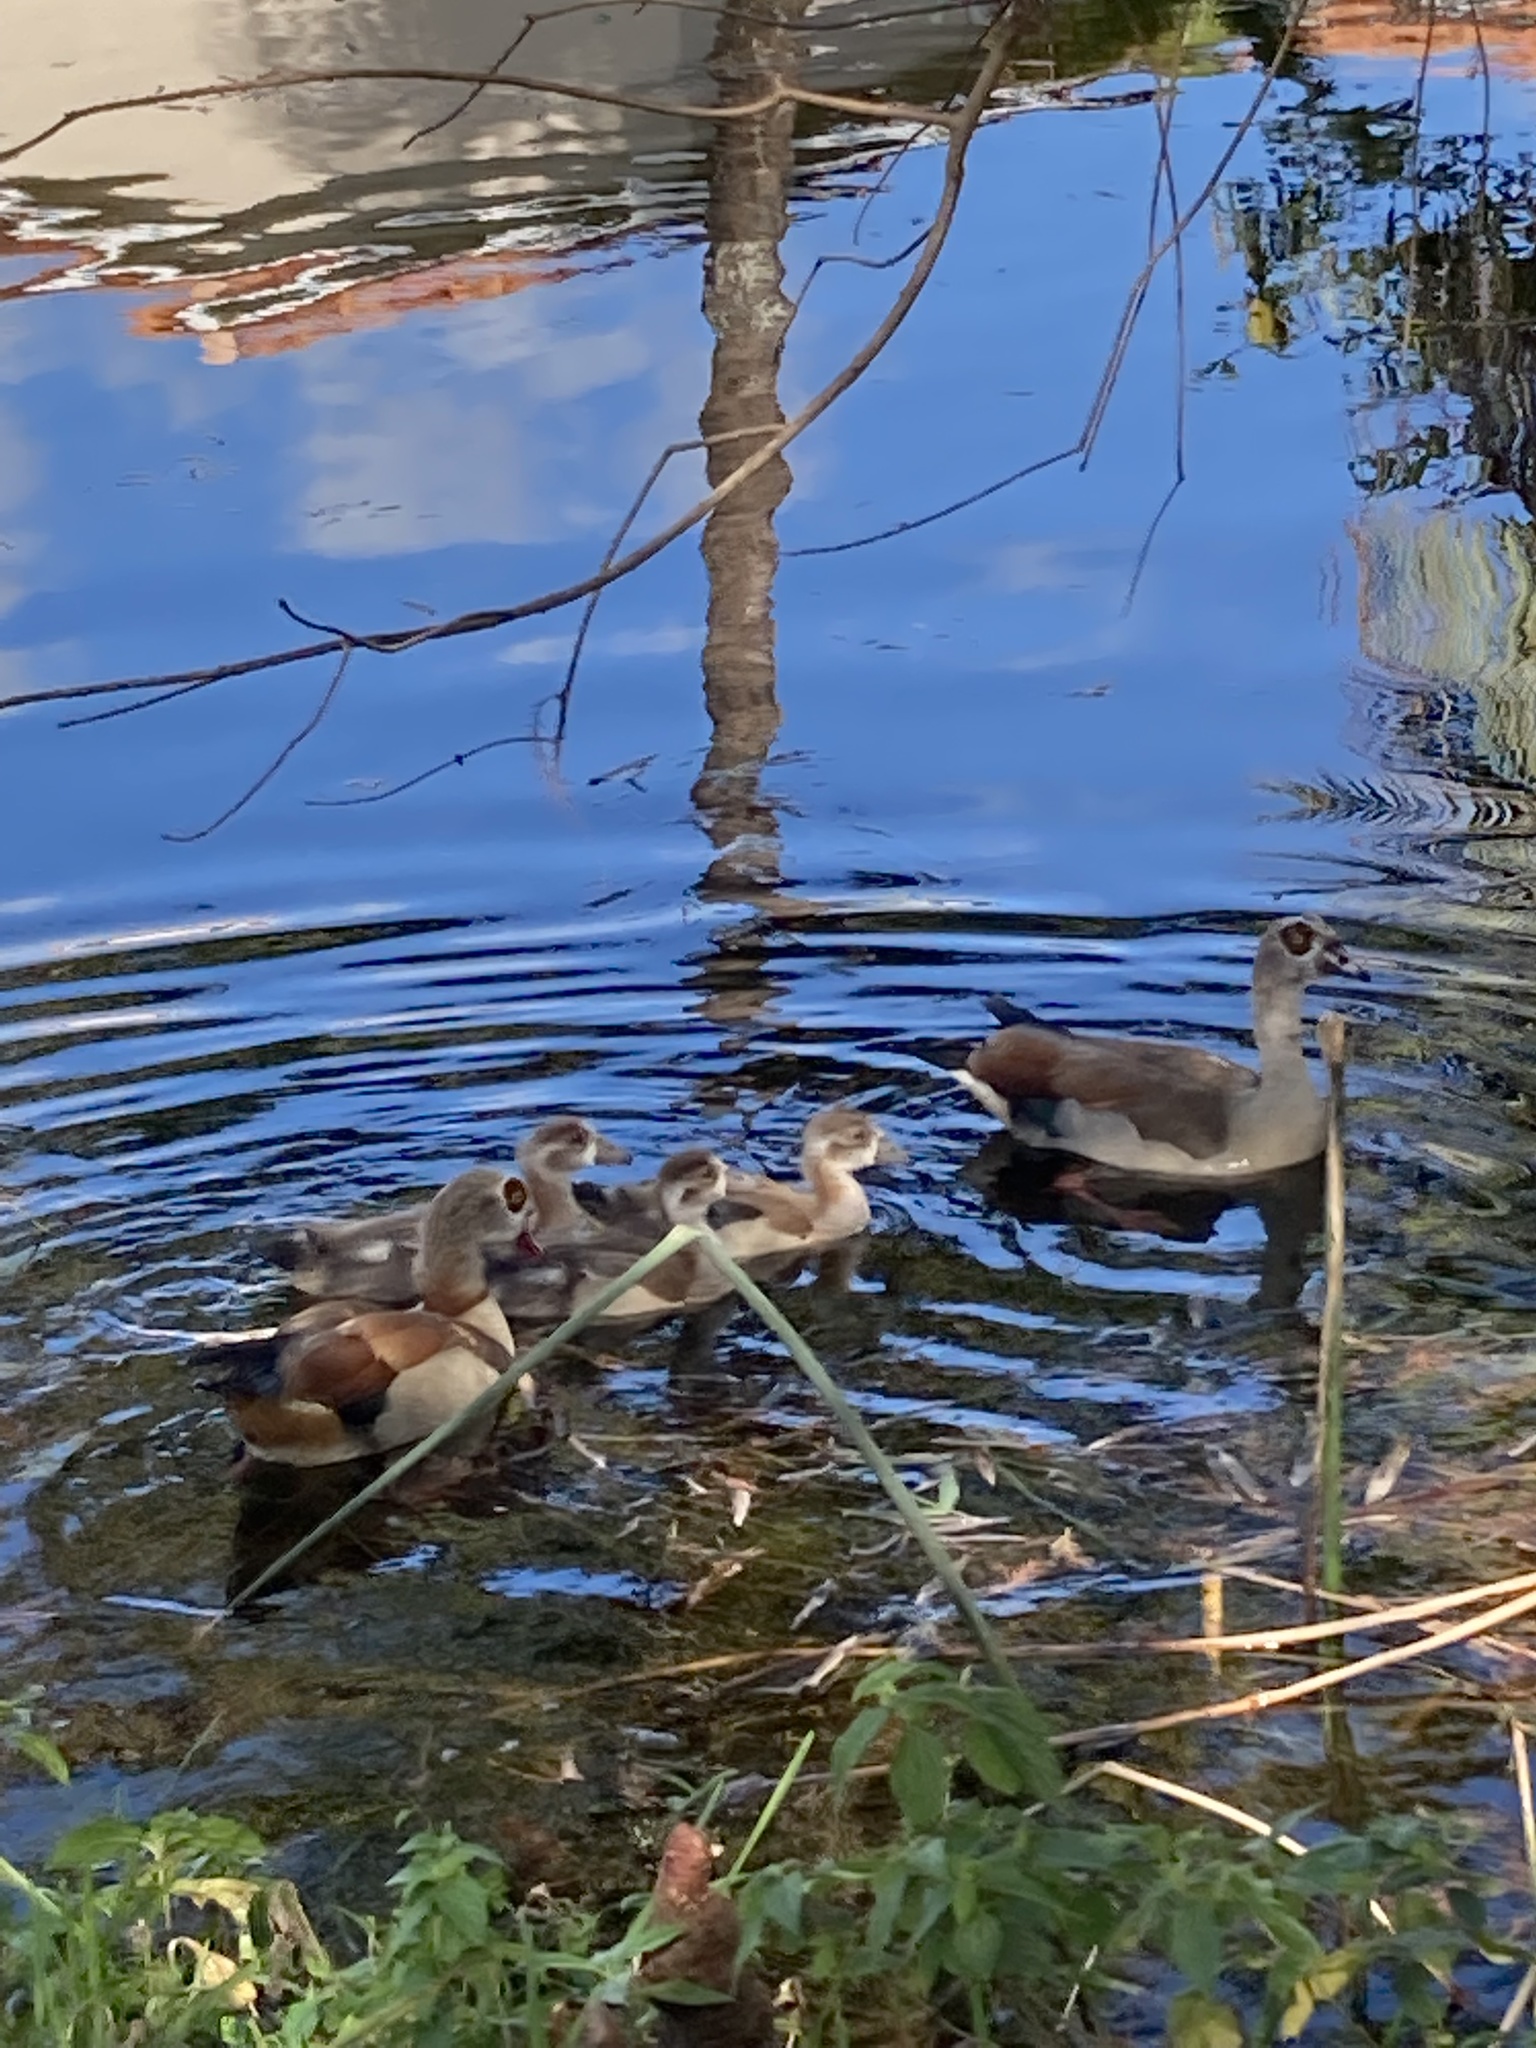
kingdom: Animalia
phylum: Chordata
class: Aves
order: Anseriformes
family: Anatidae
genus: Alopochen
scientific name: Alopochen aegyptiaca
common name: Egyptian goose
